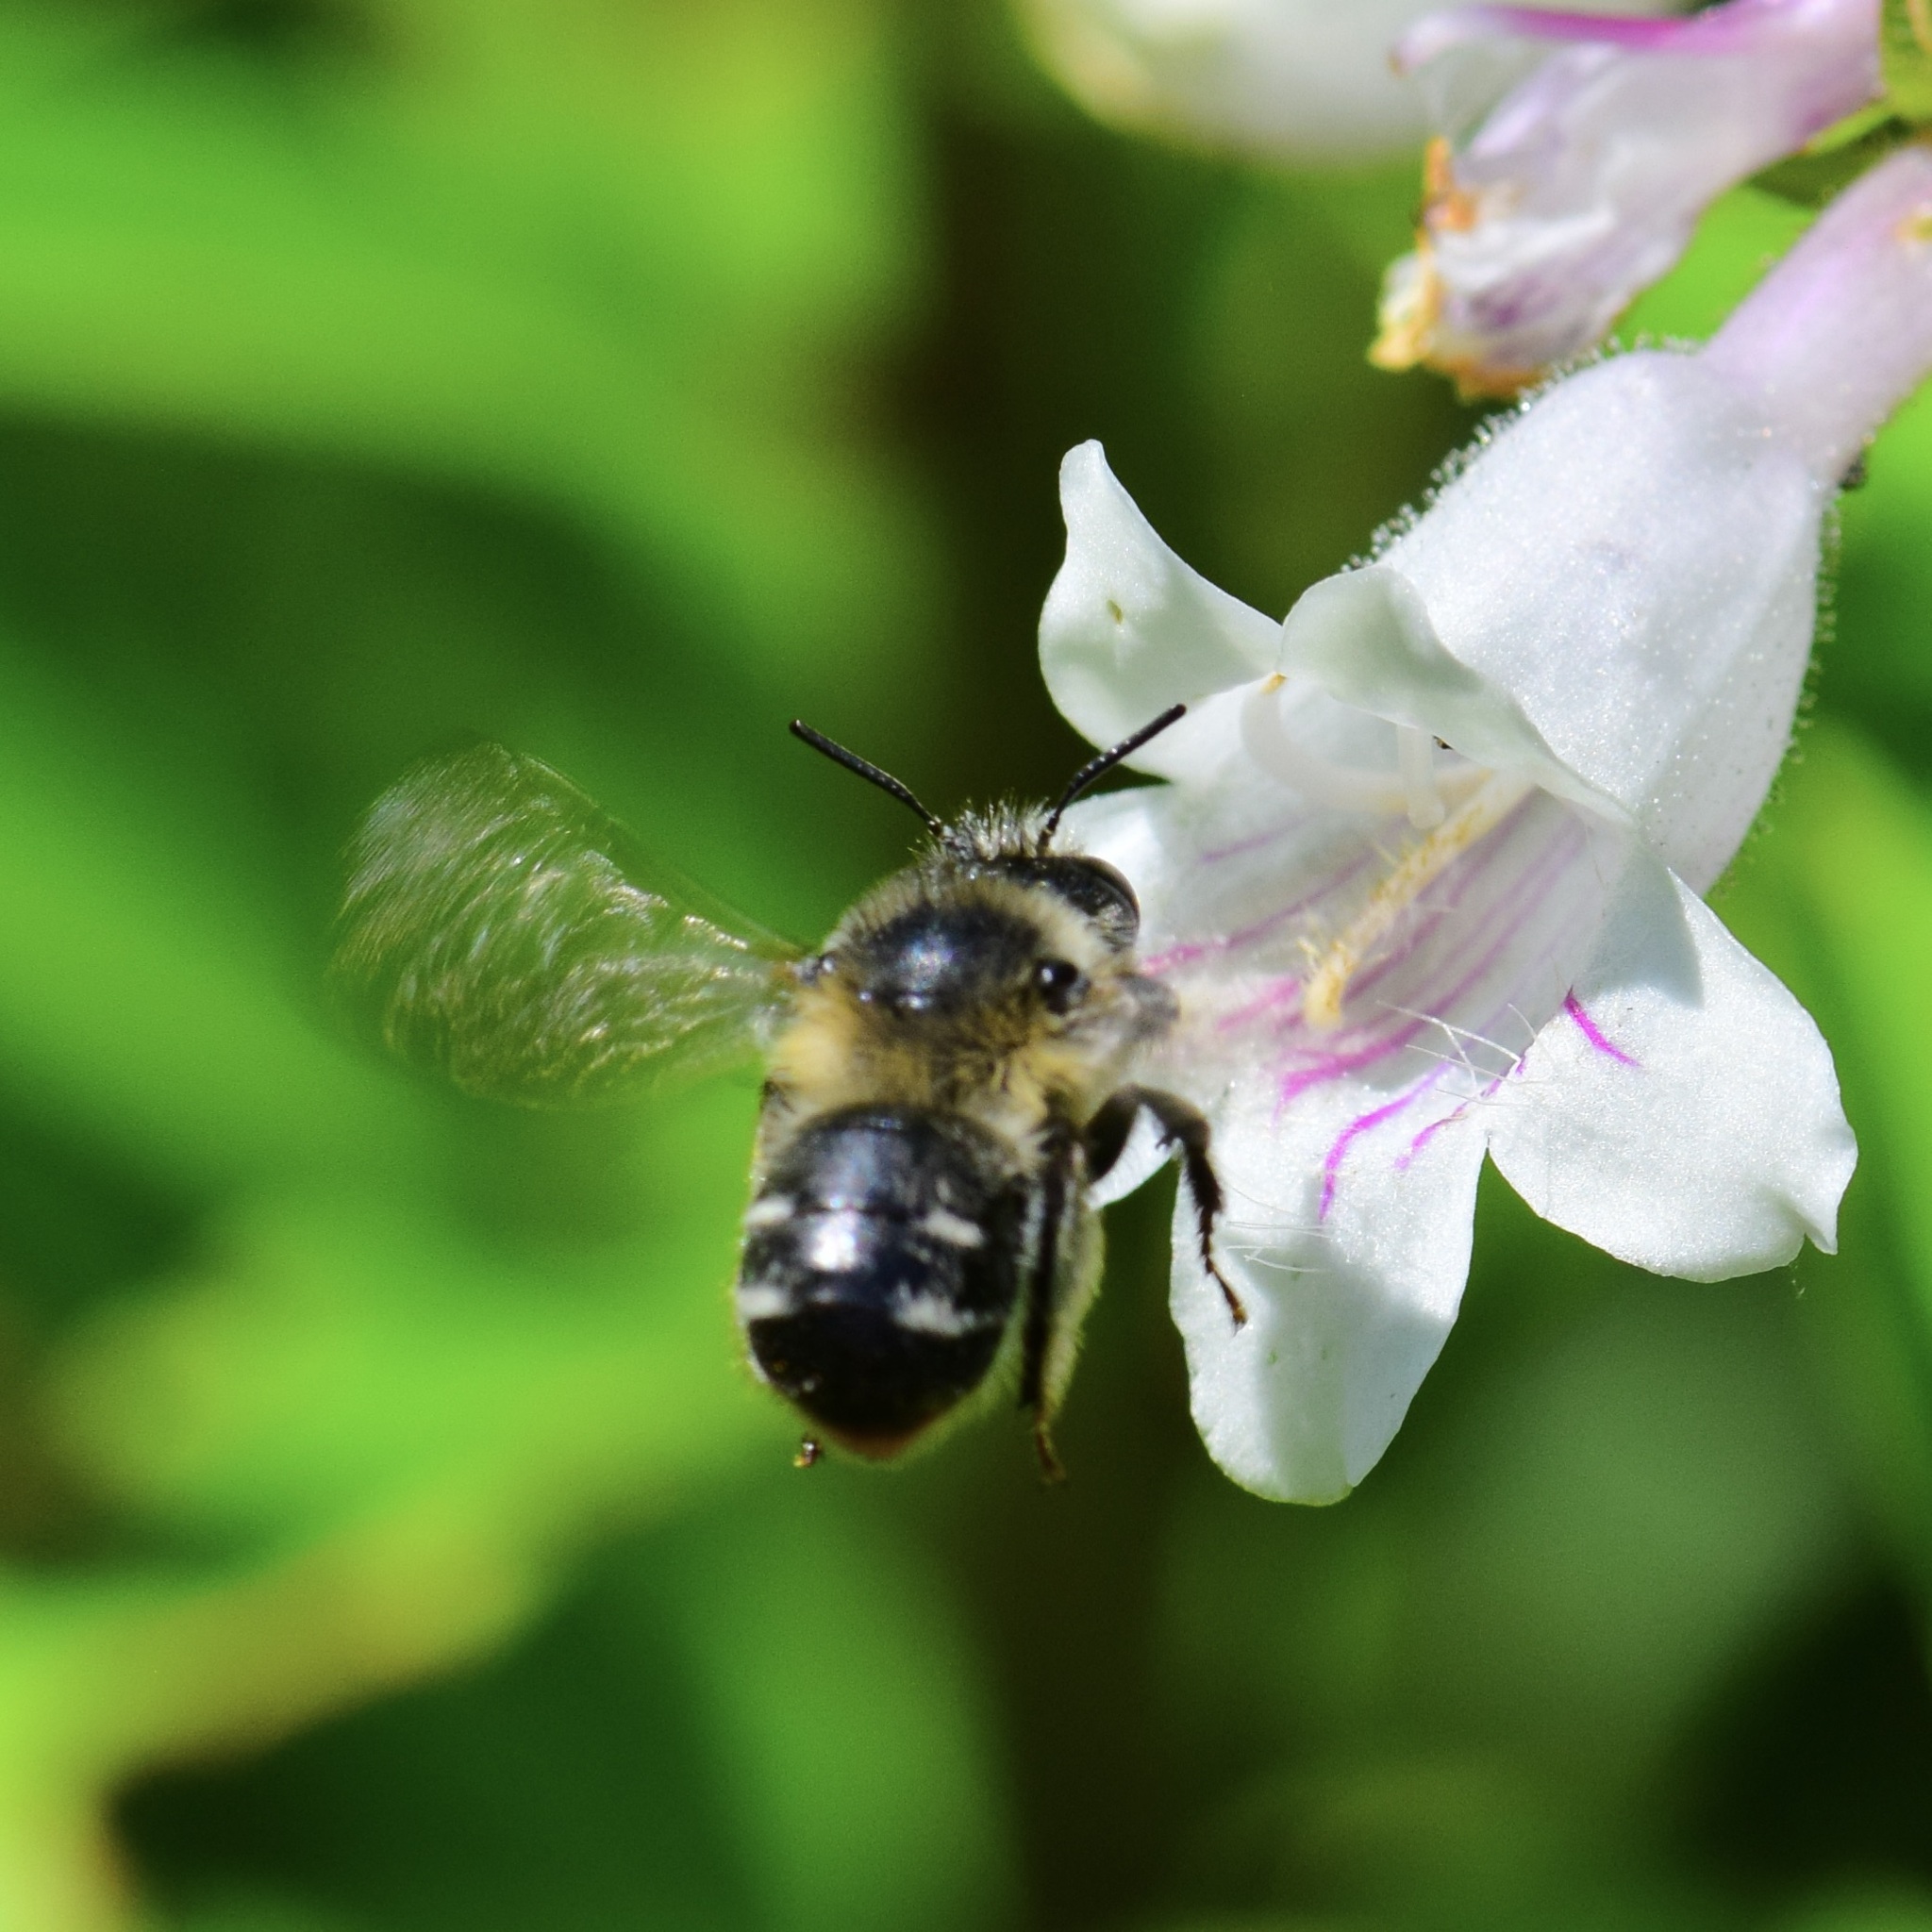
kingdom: Animalia
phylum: Arthropoda
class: Insecta
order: Hymenoptera
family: Apidae
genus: Anthophora
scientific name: Anthophora terminalis
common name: Orange-tipped wood-digger bee
